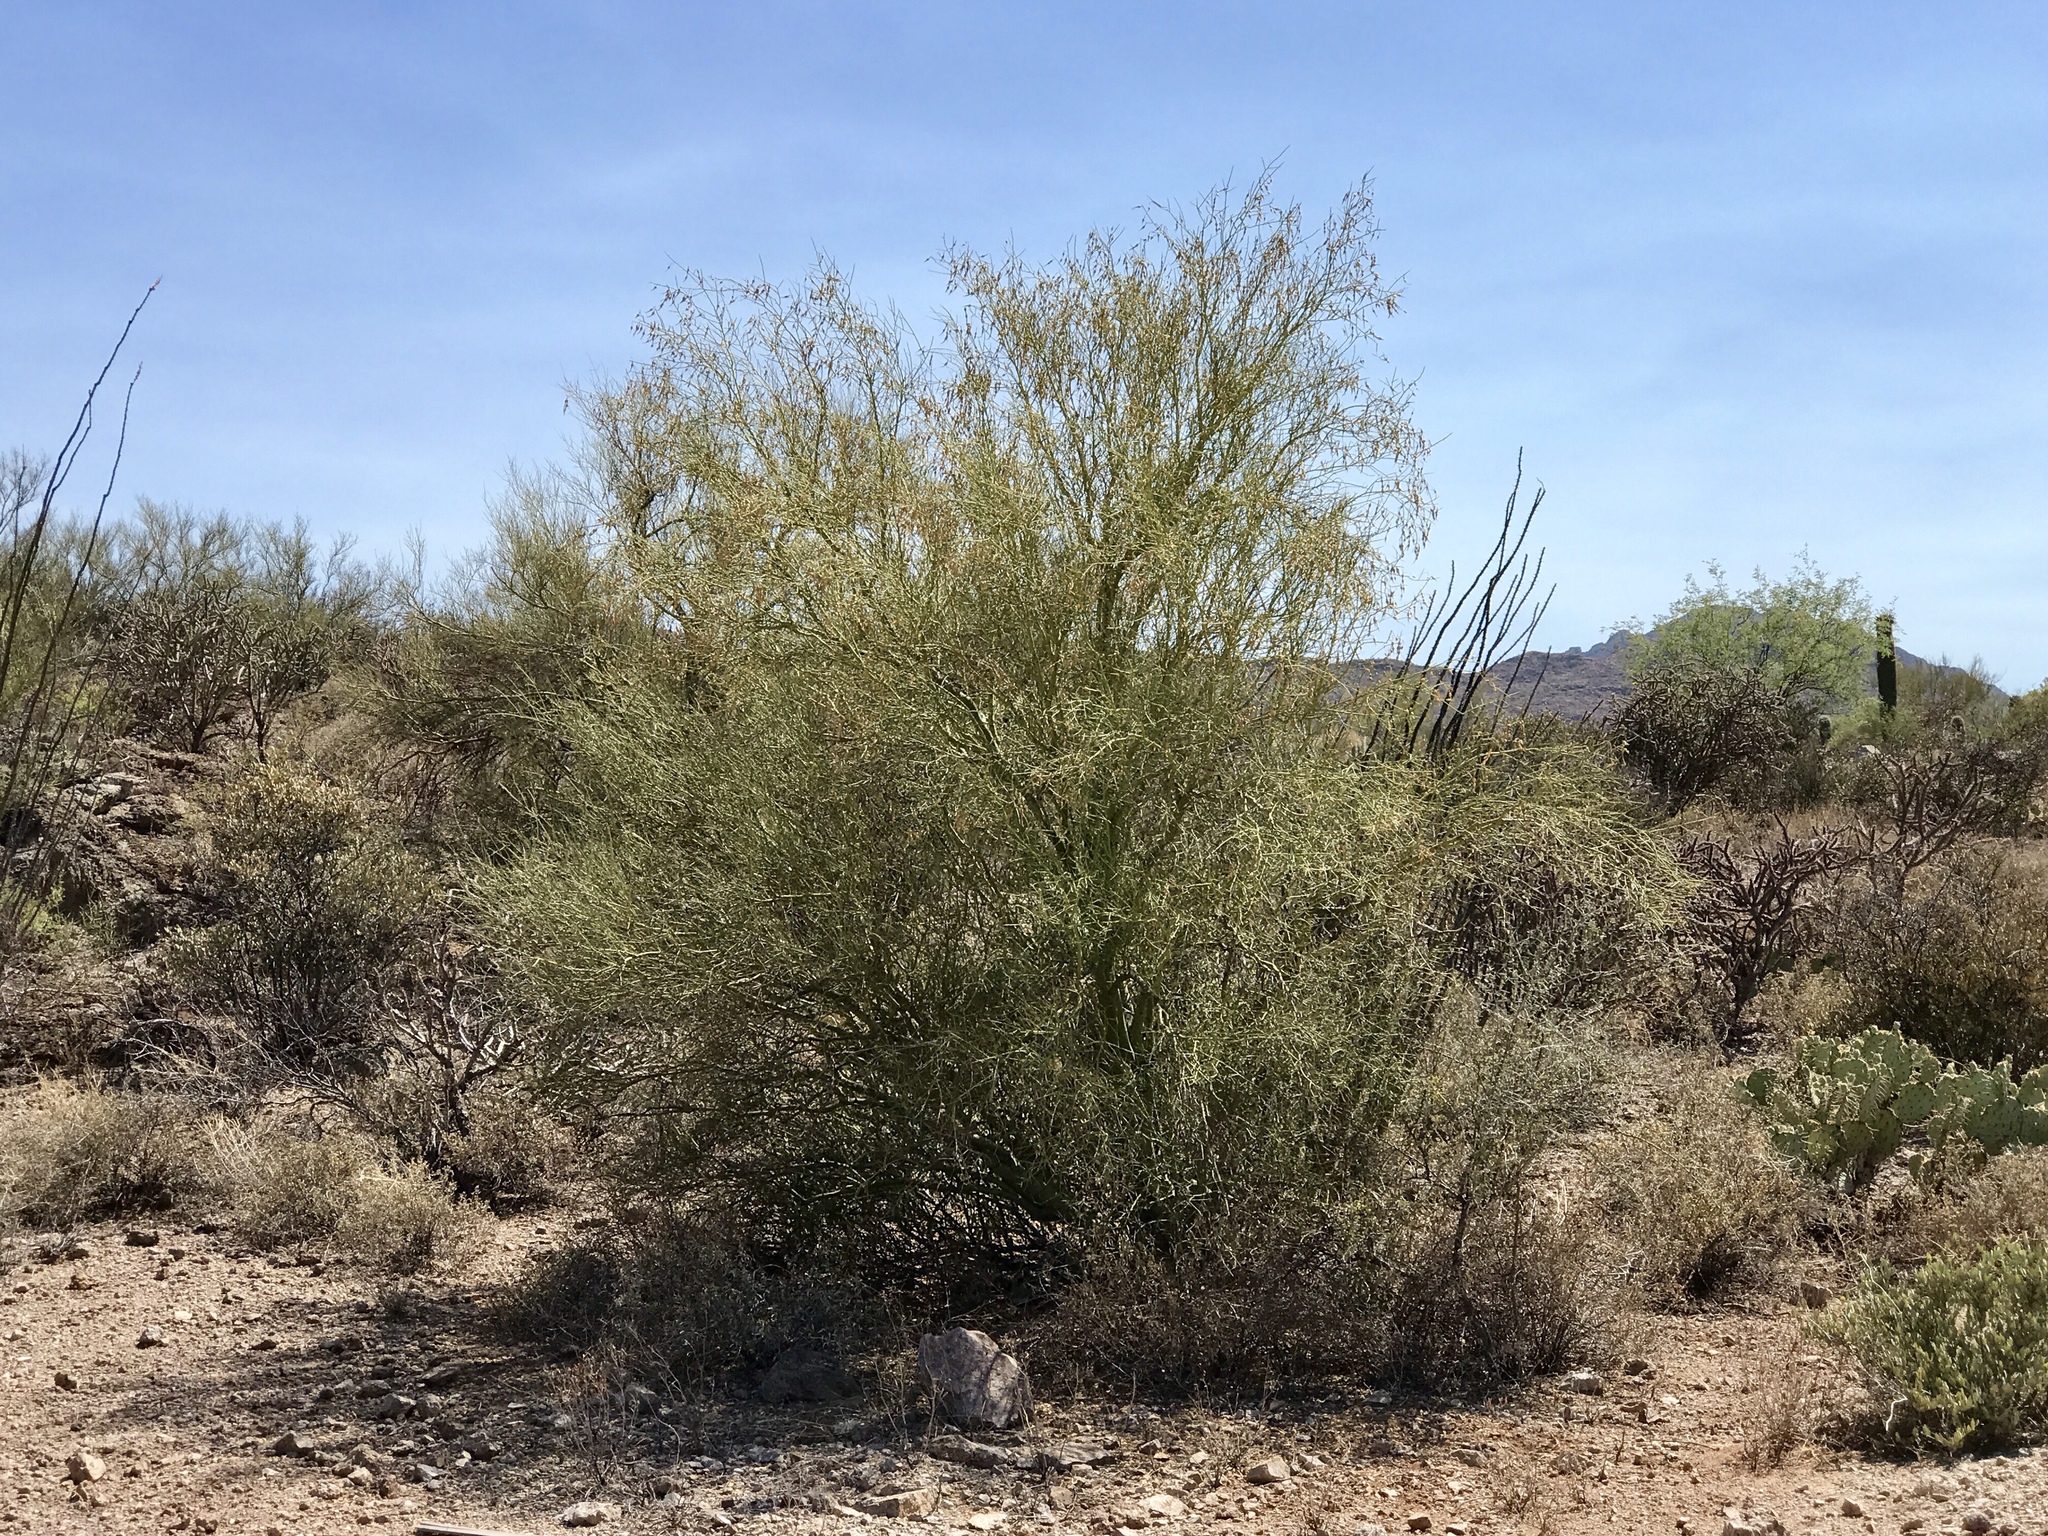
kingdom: Plantae
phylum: Tracheophyta
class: Magnoliopsida
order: Fabales
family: Fabaceae
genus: Parkinsonia
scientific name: Parkinsonia florida
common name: Blue paloverde
